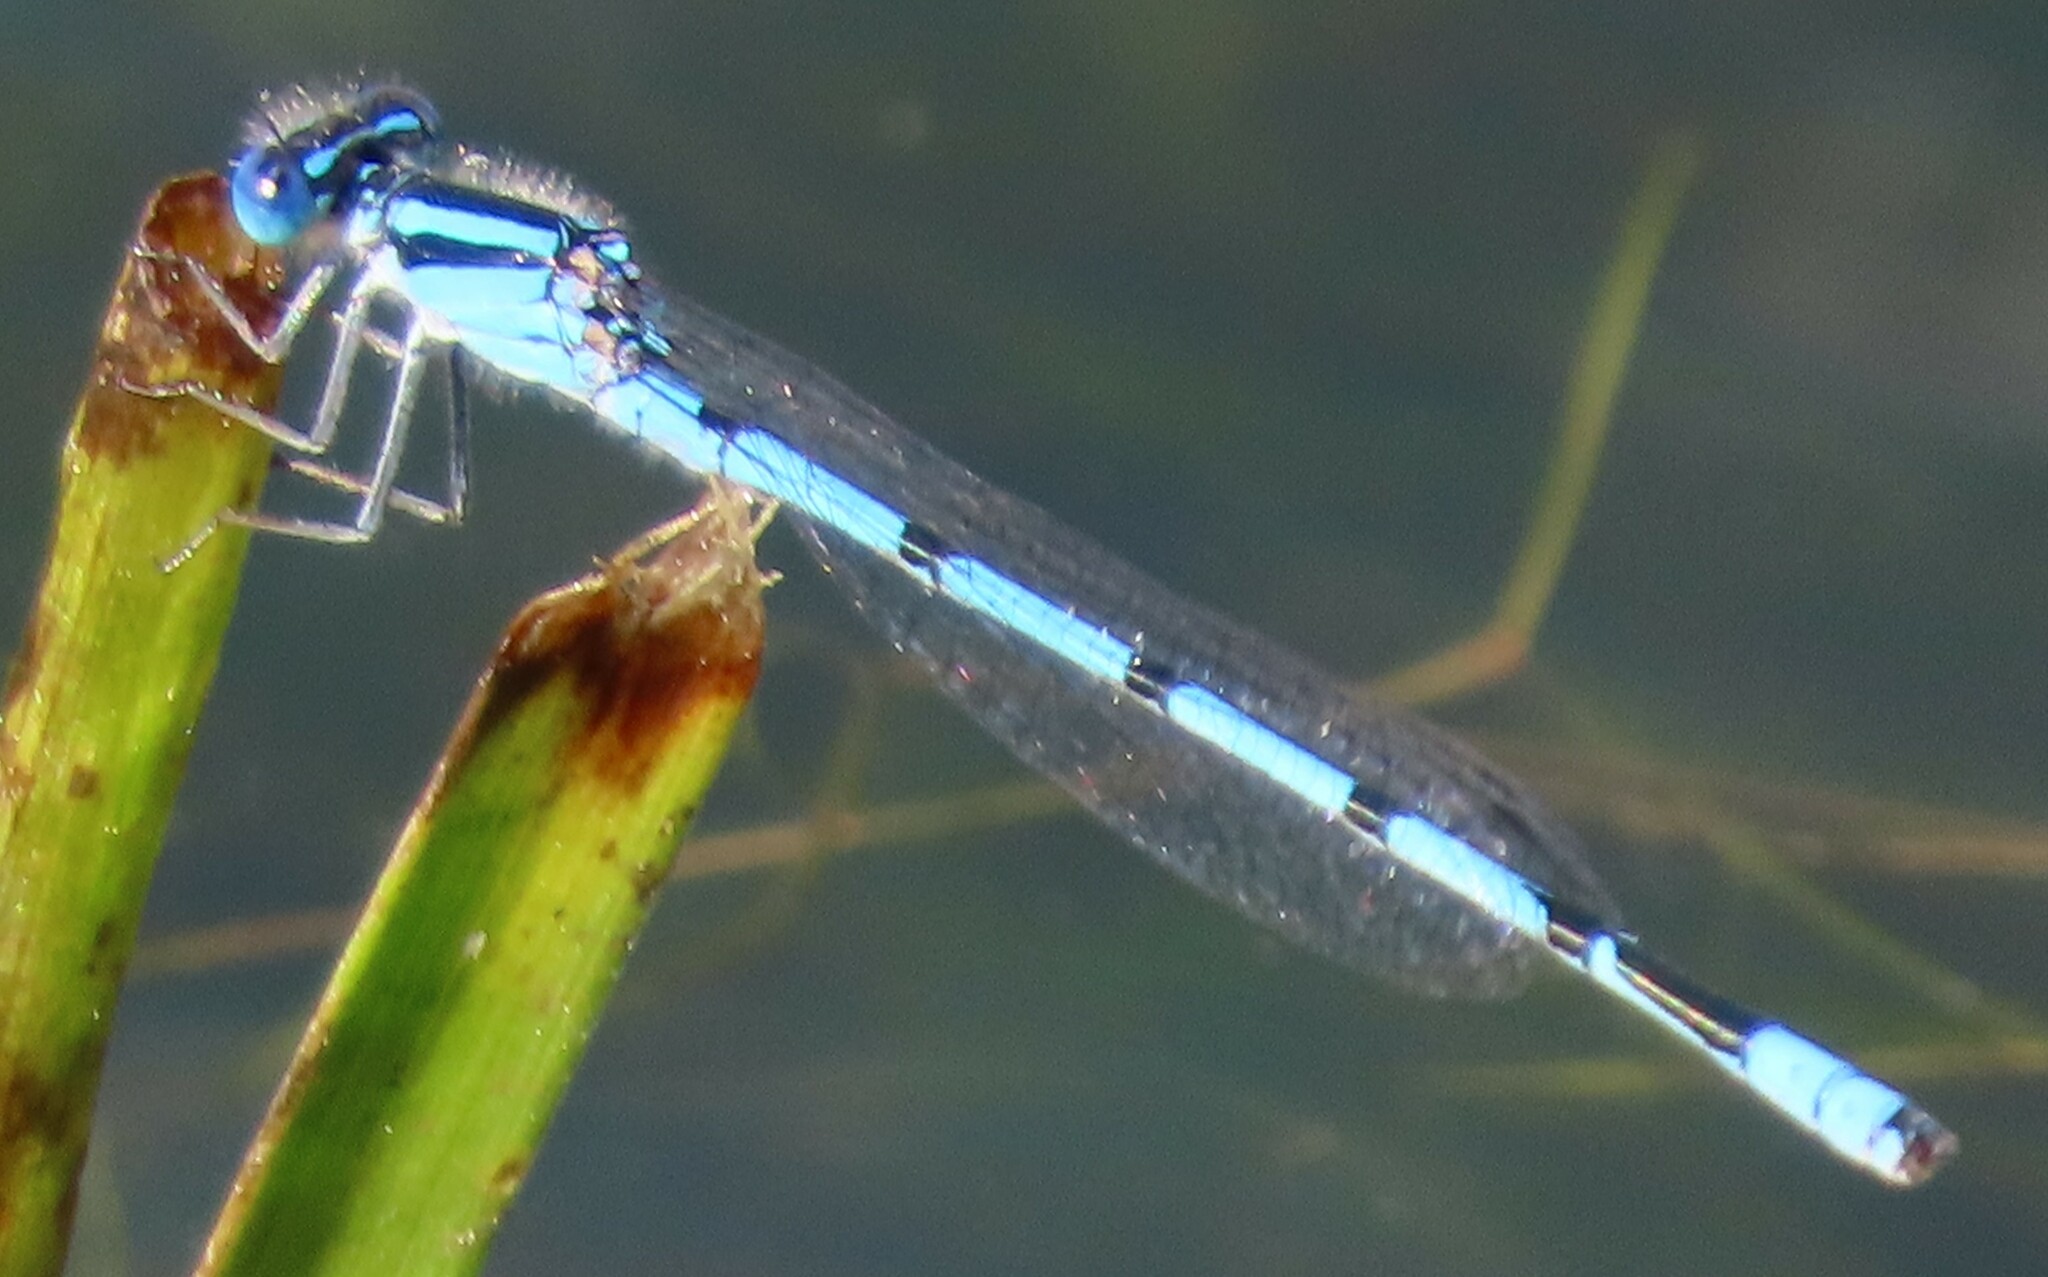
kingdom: Animalia
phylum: Arthropoda
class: Insecta
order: Odonata
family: Coenagrionidae
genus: Enallagma
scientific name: Enallagma doubledayi
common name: Atlantic bluet
